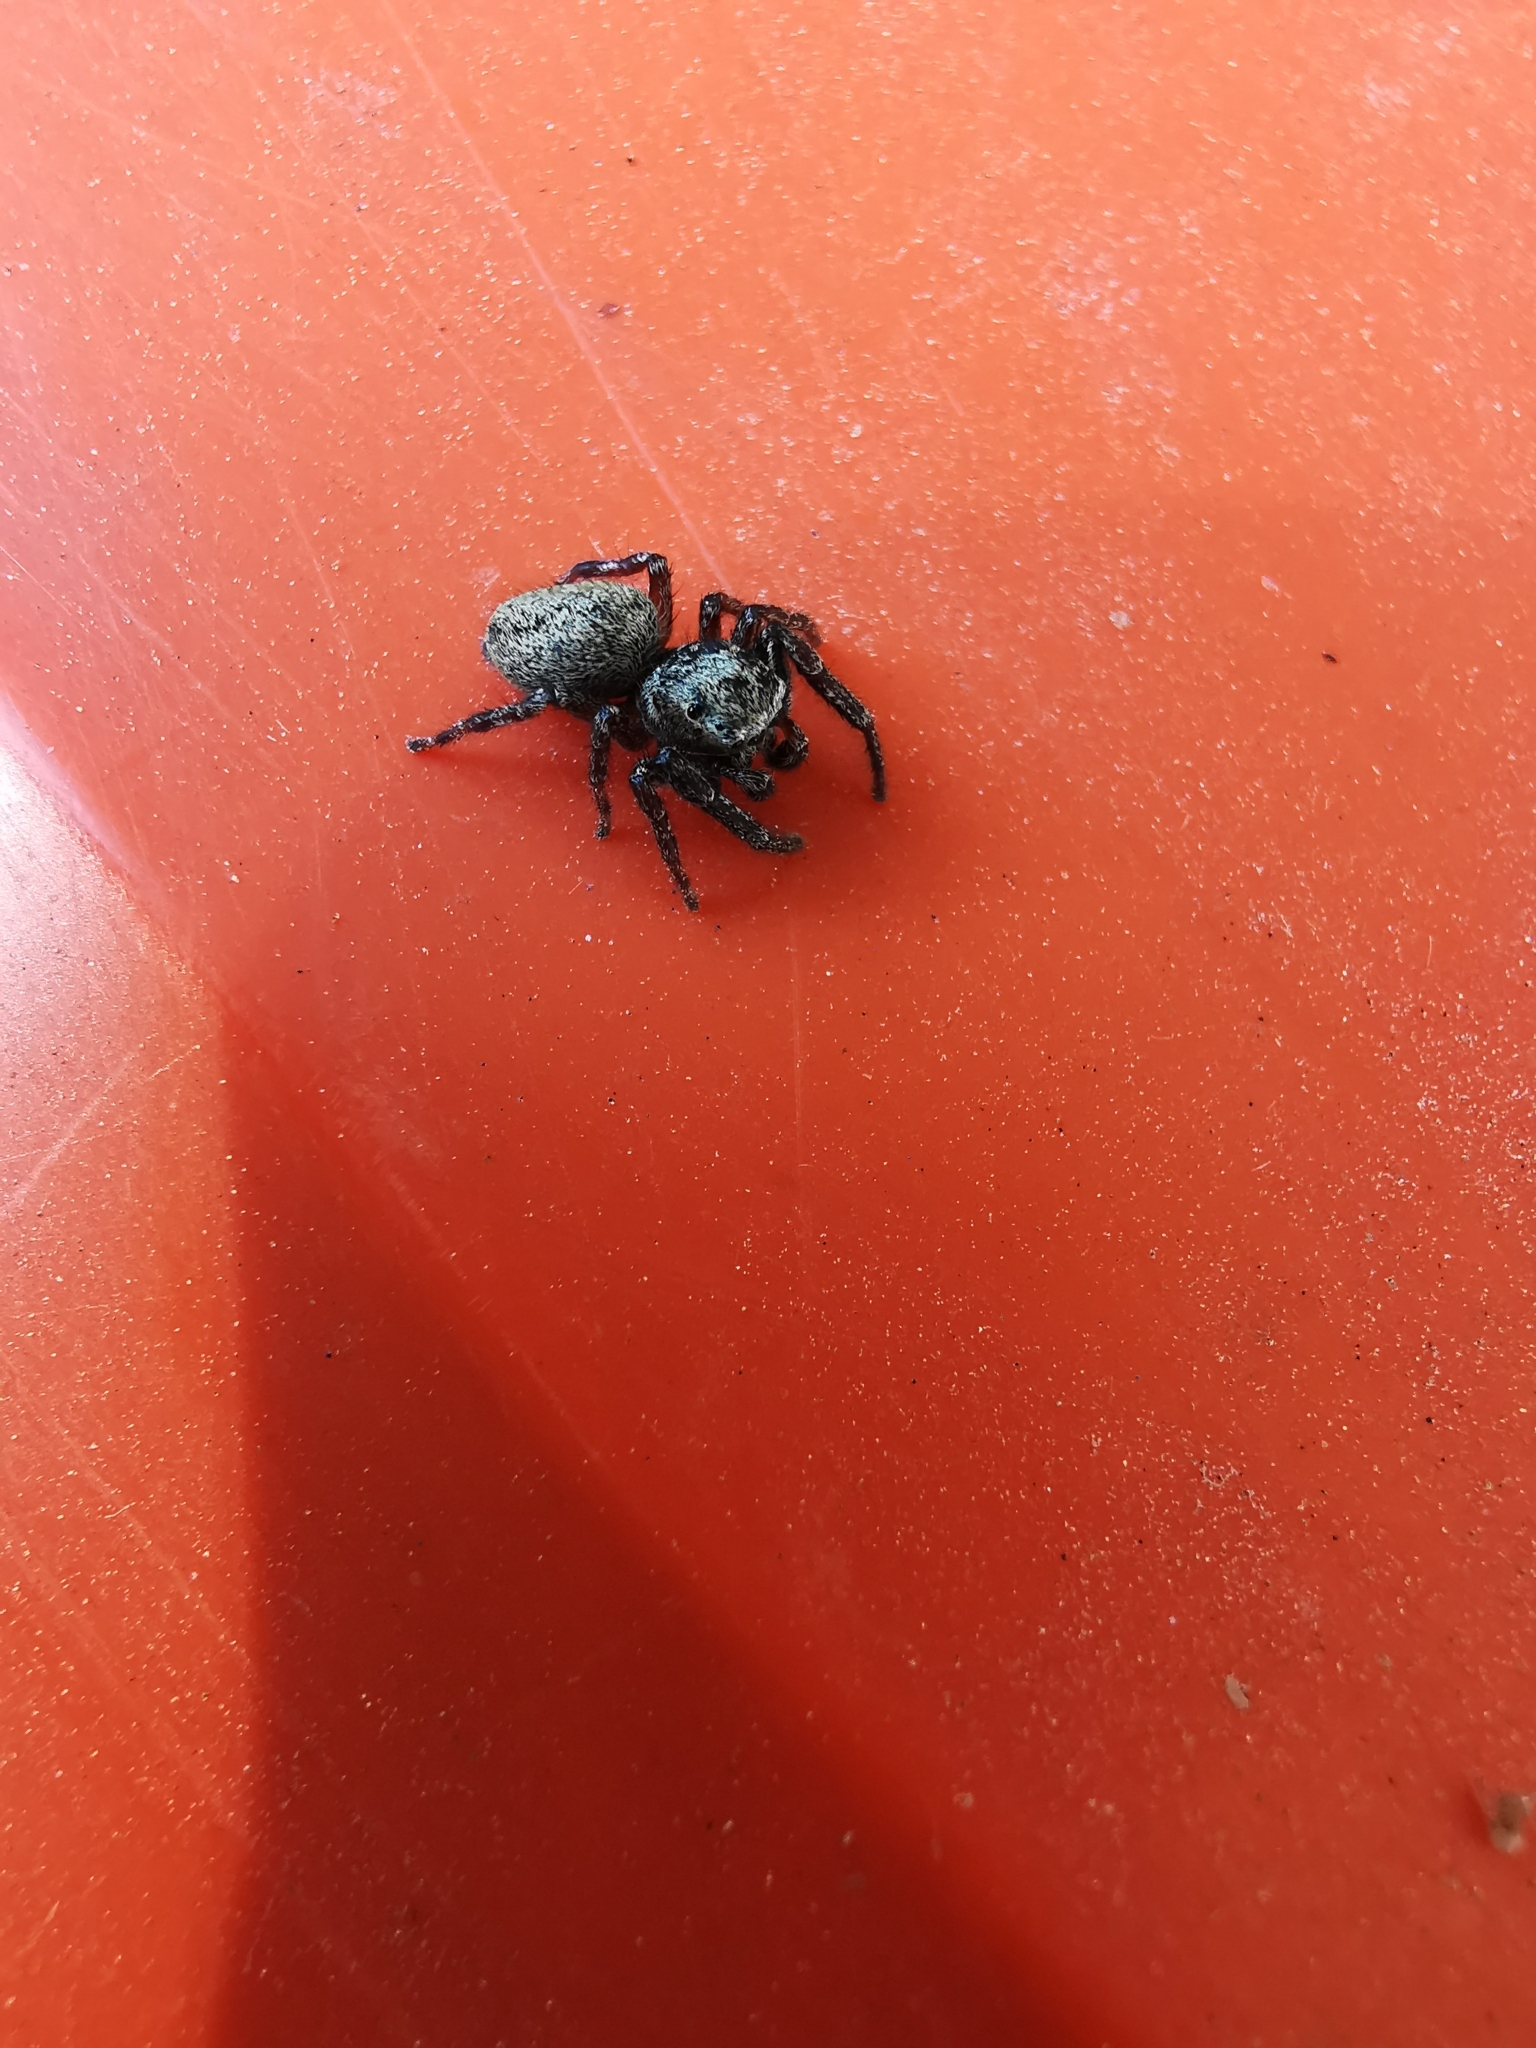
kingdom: Animalia
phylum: Arthropoda
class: Arachnida
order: Araneae
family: Salticidae
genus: Dendryphantes
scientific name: Dendryphantes rudis
